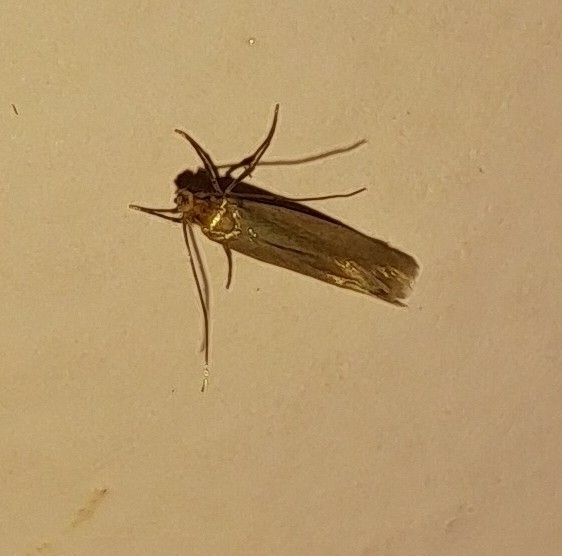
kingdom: Animalia
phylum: Arthropoda
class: Insecta
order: Lepidoptera
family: Tineidae
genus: Tineola
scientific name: Tineola bisselliella
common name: Webbing clothes moth
